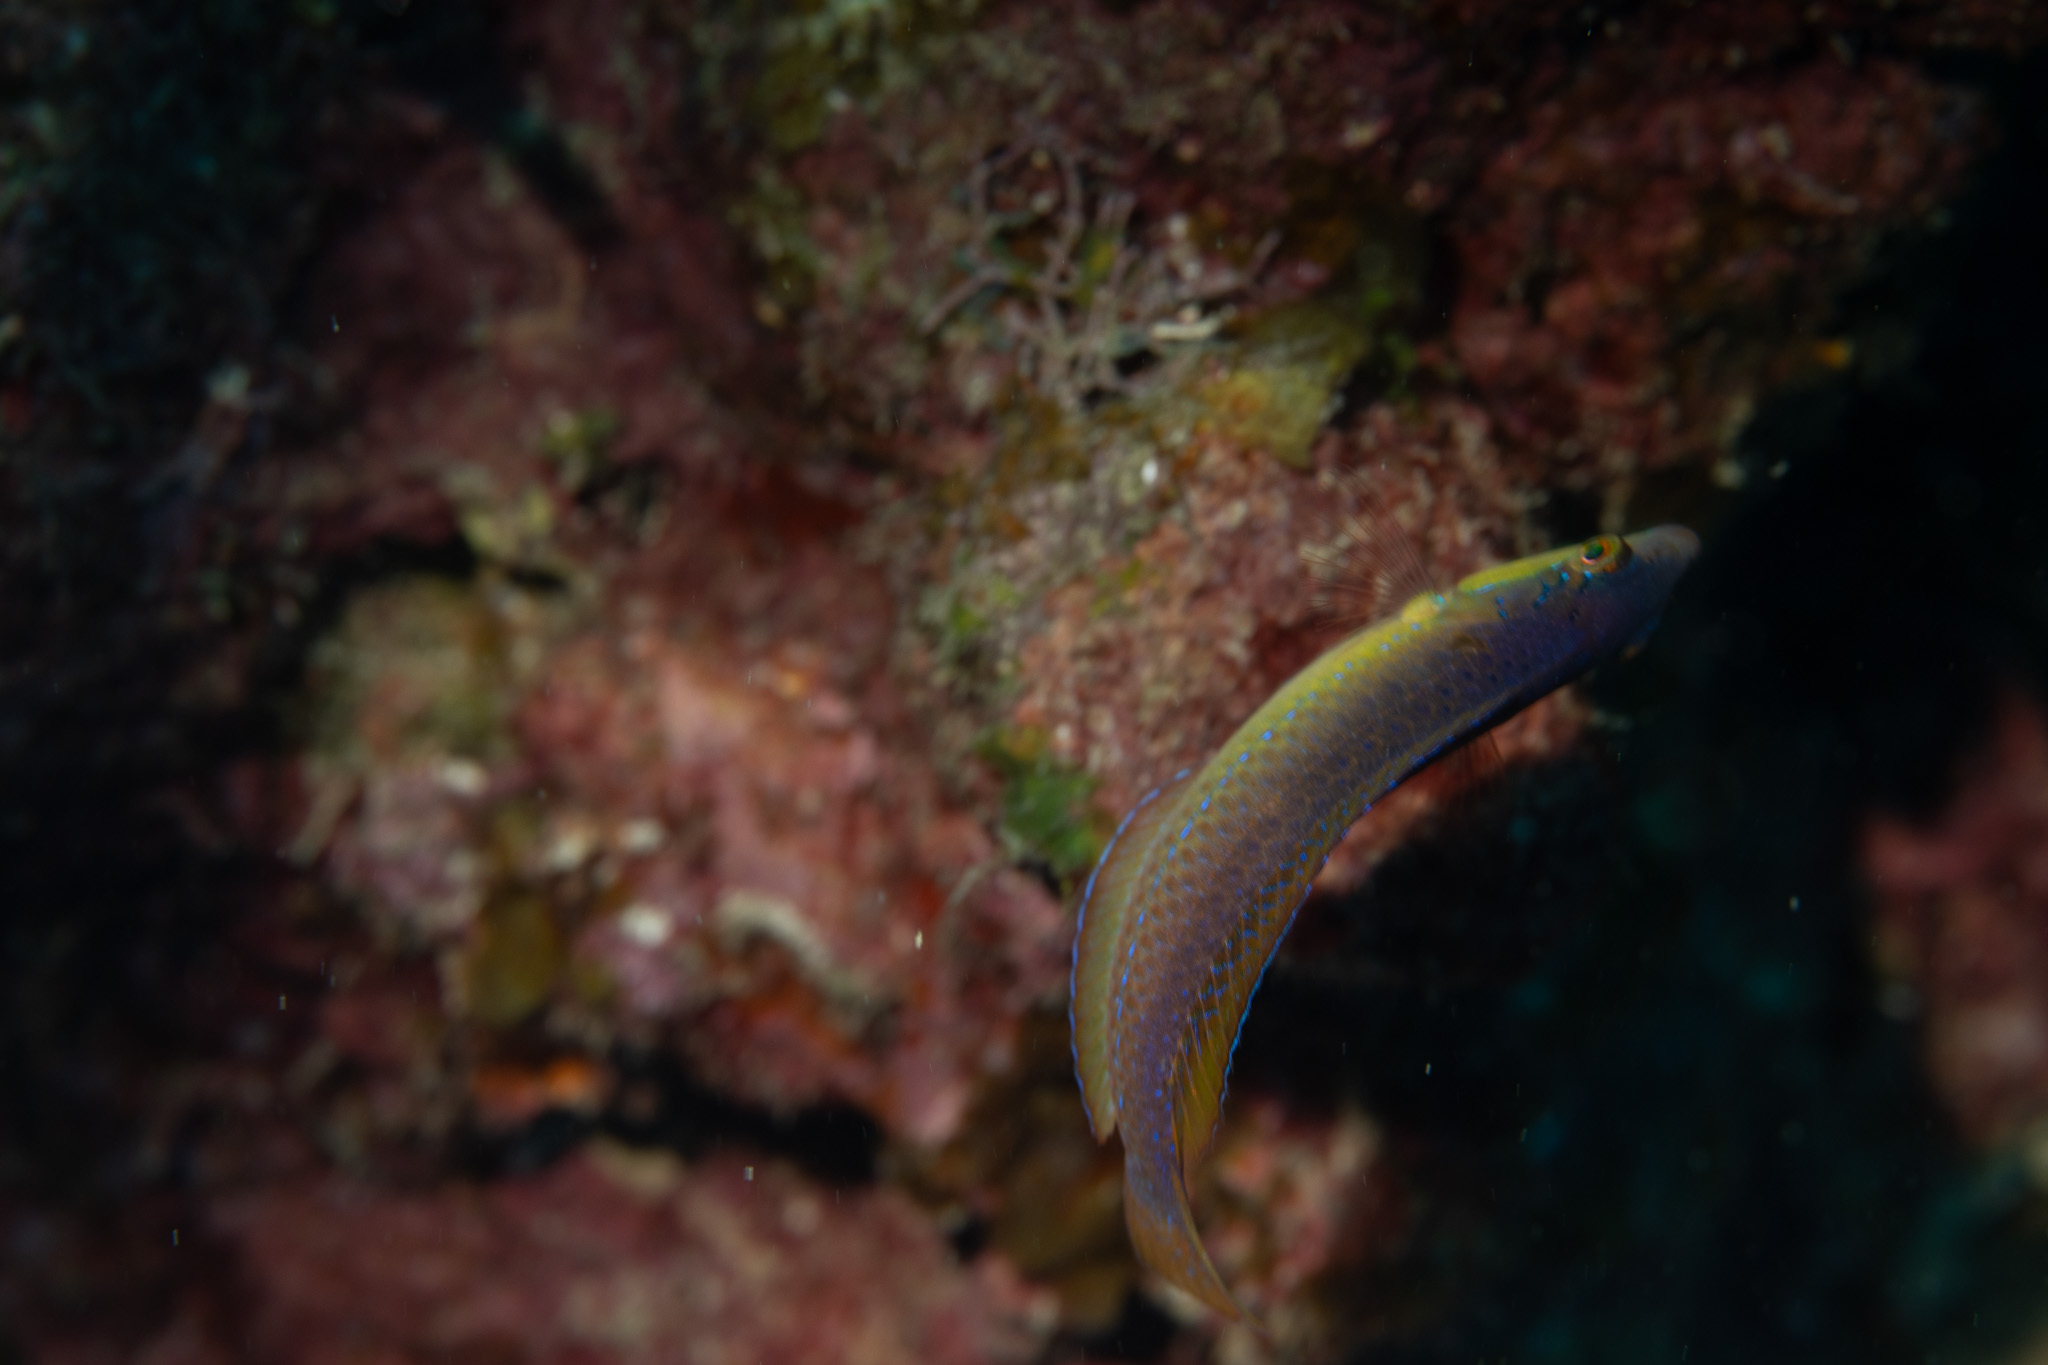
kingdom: Animalia
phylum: Chordata
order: Perciformes
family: Labridae
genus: Halichoeres
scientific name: Halichoeres garnoti
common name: Yellowhead wrasse
